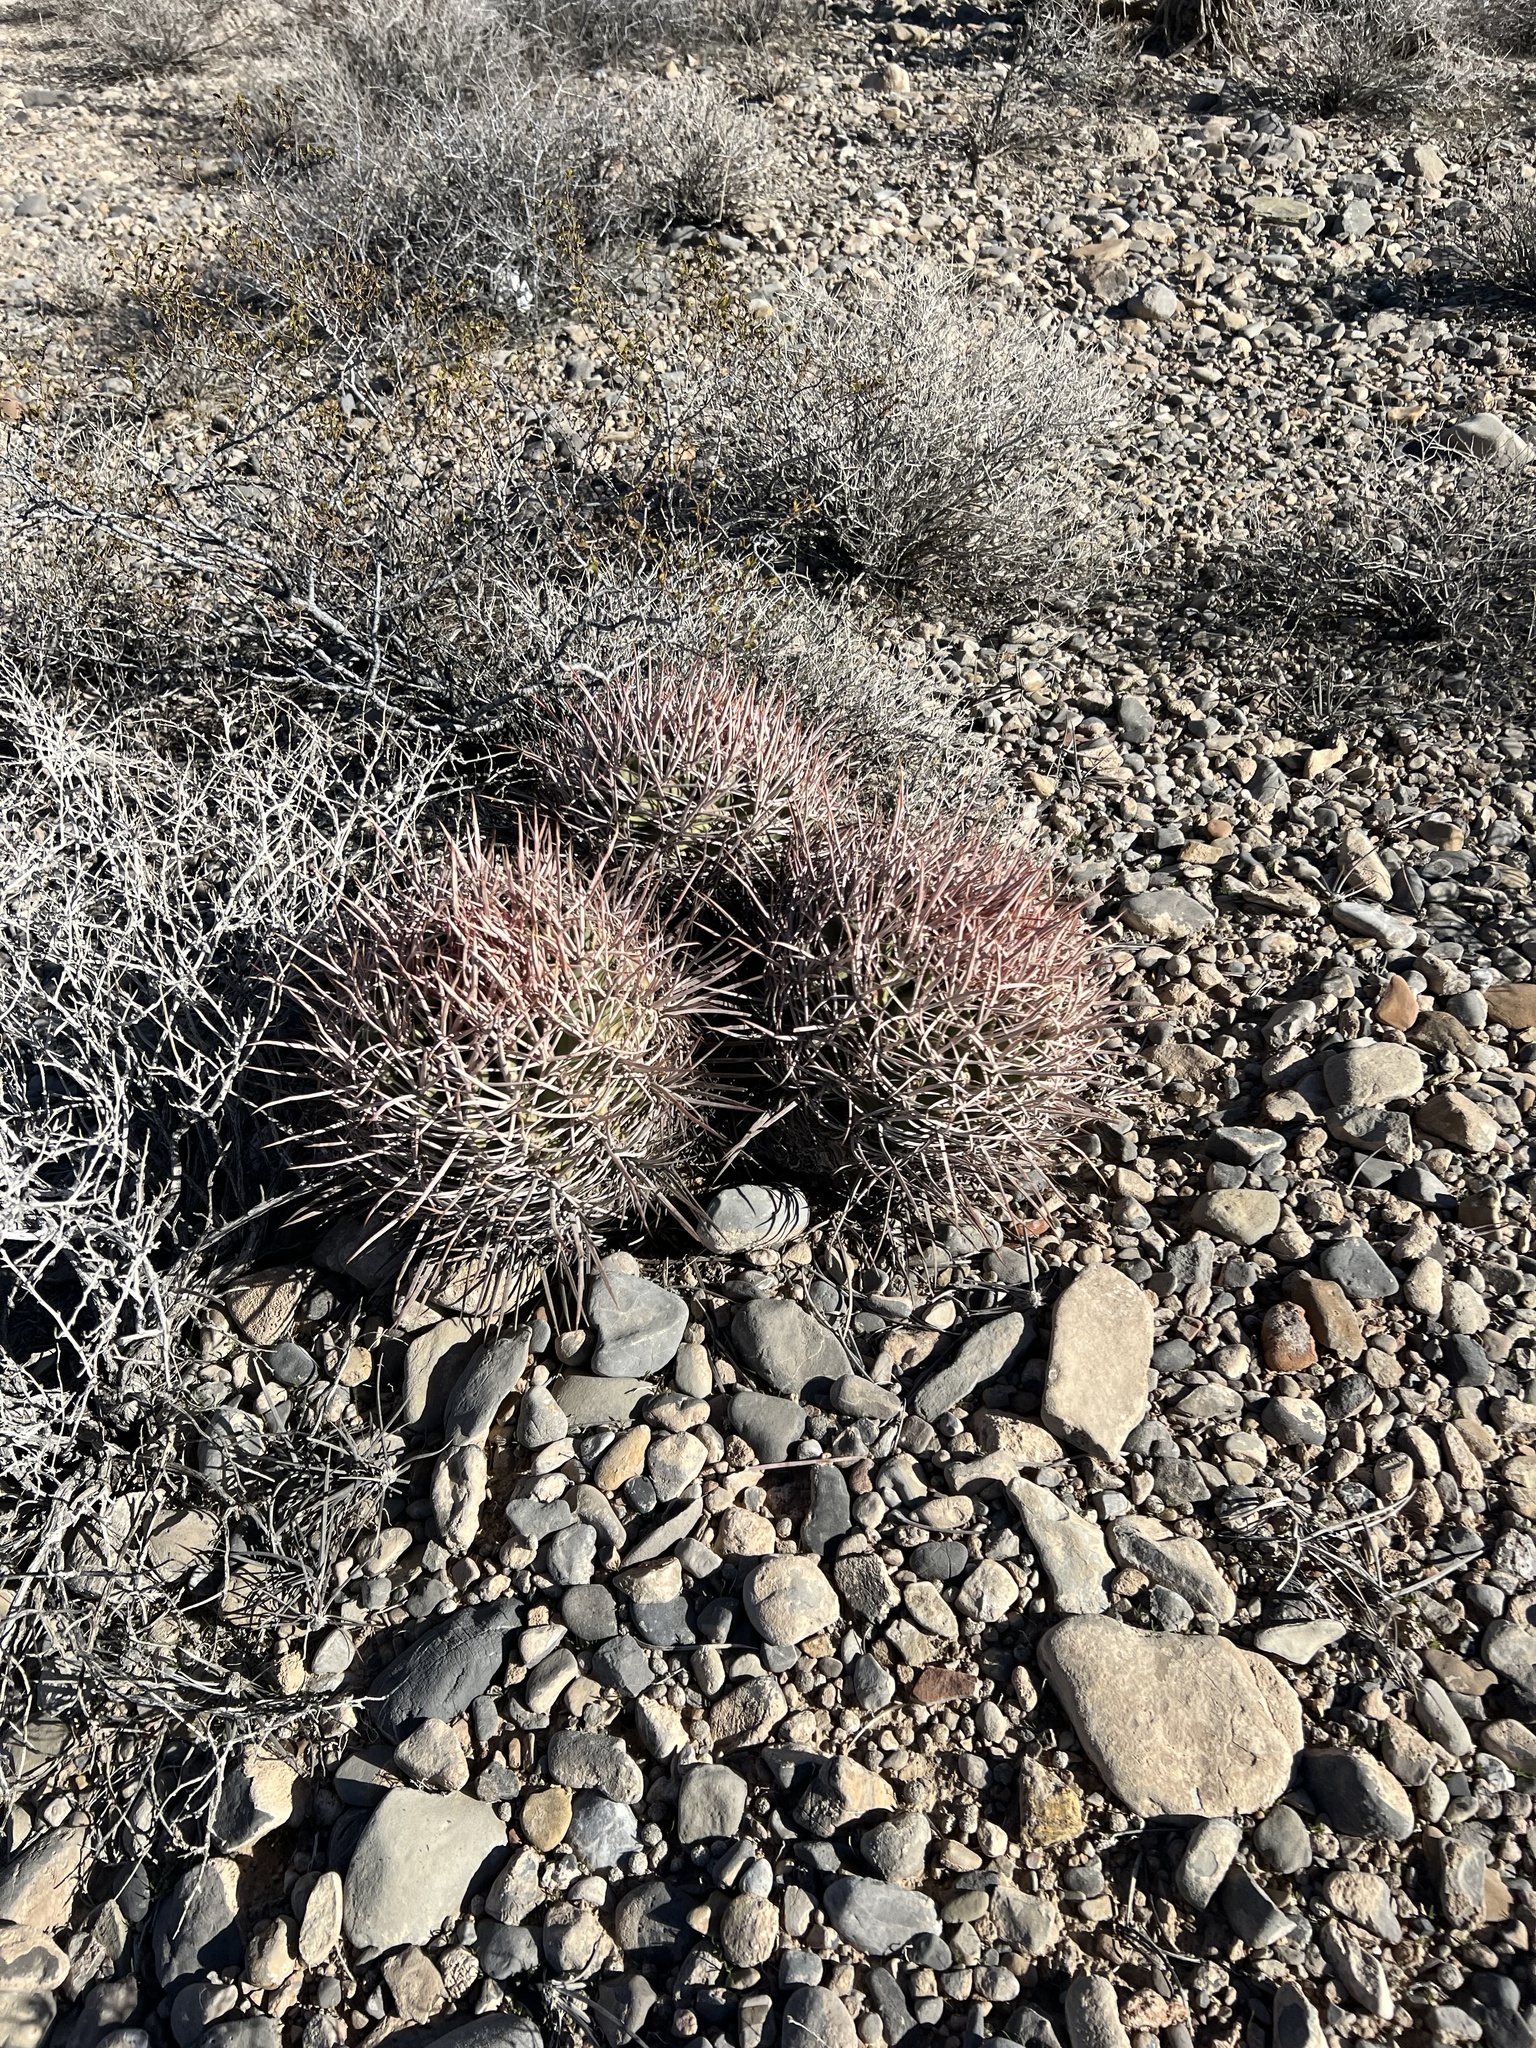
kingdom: Plantae
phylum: Tracheophyta
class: Magnoliopsida
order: Caryophyllales
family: Cactaceae
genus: Echinocactus
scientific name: Echinocactus polycephalus
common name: Cottontop cactus
